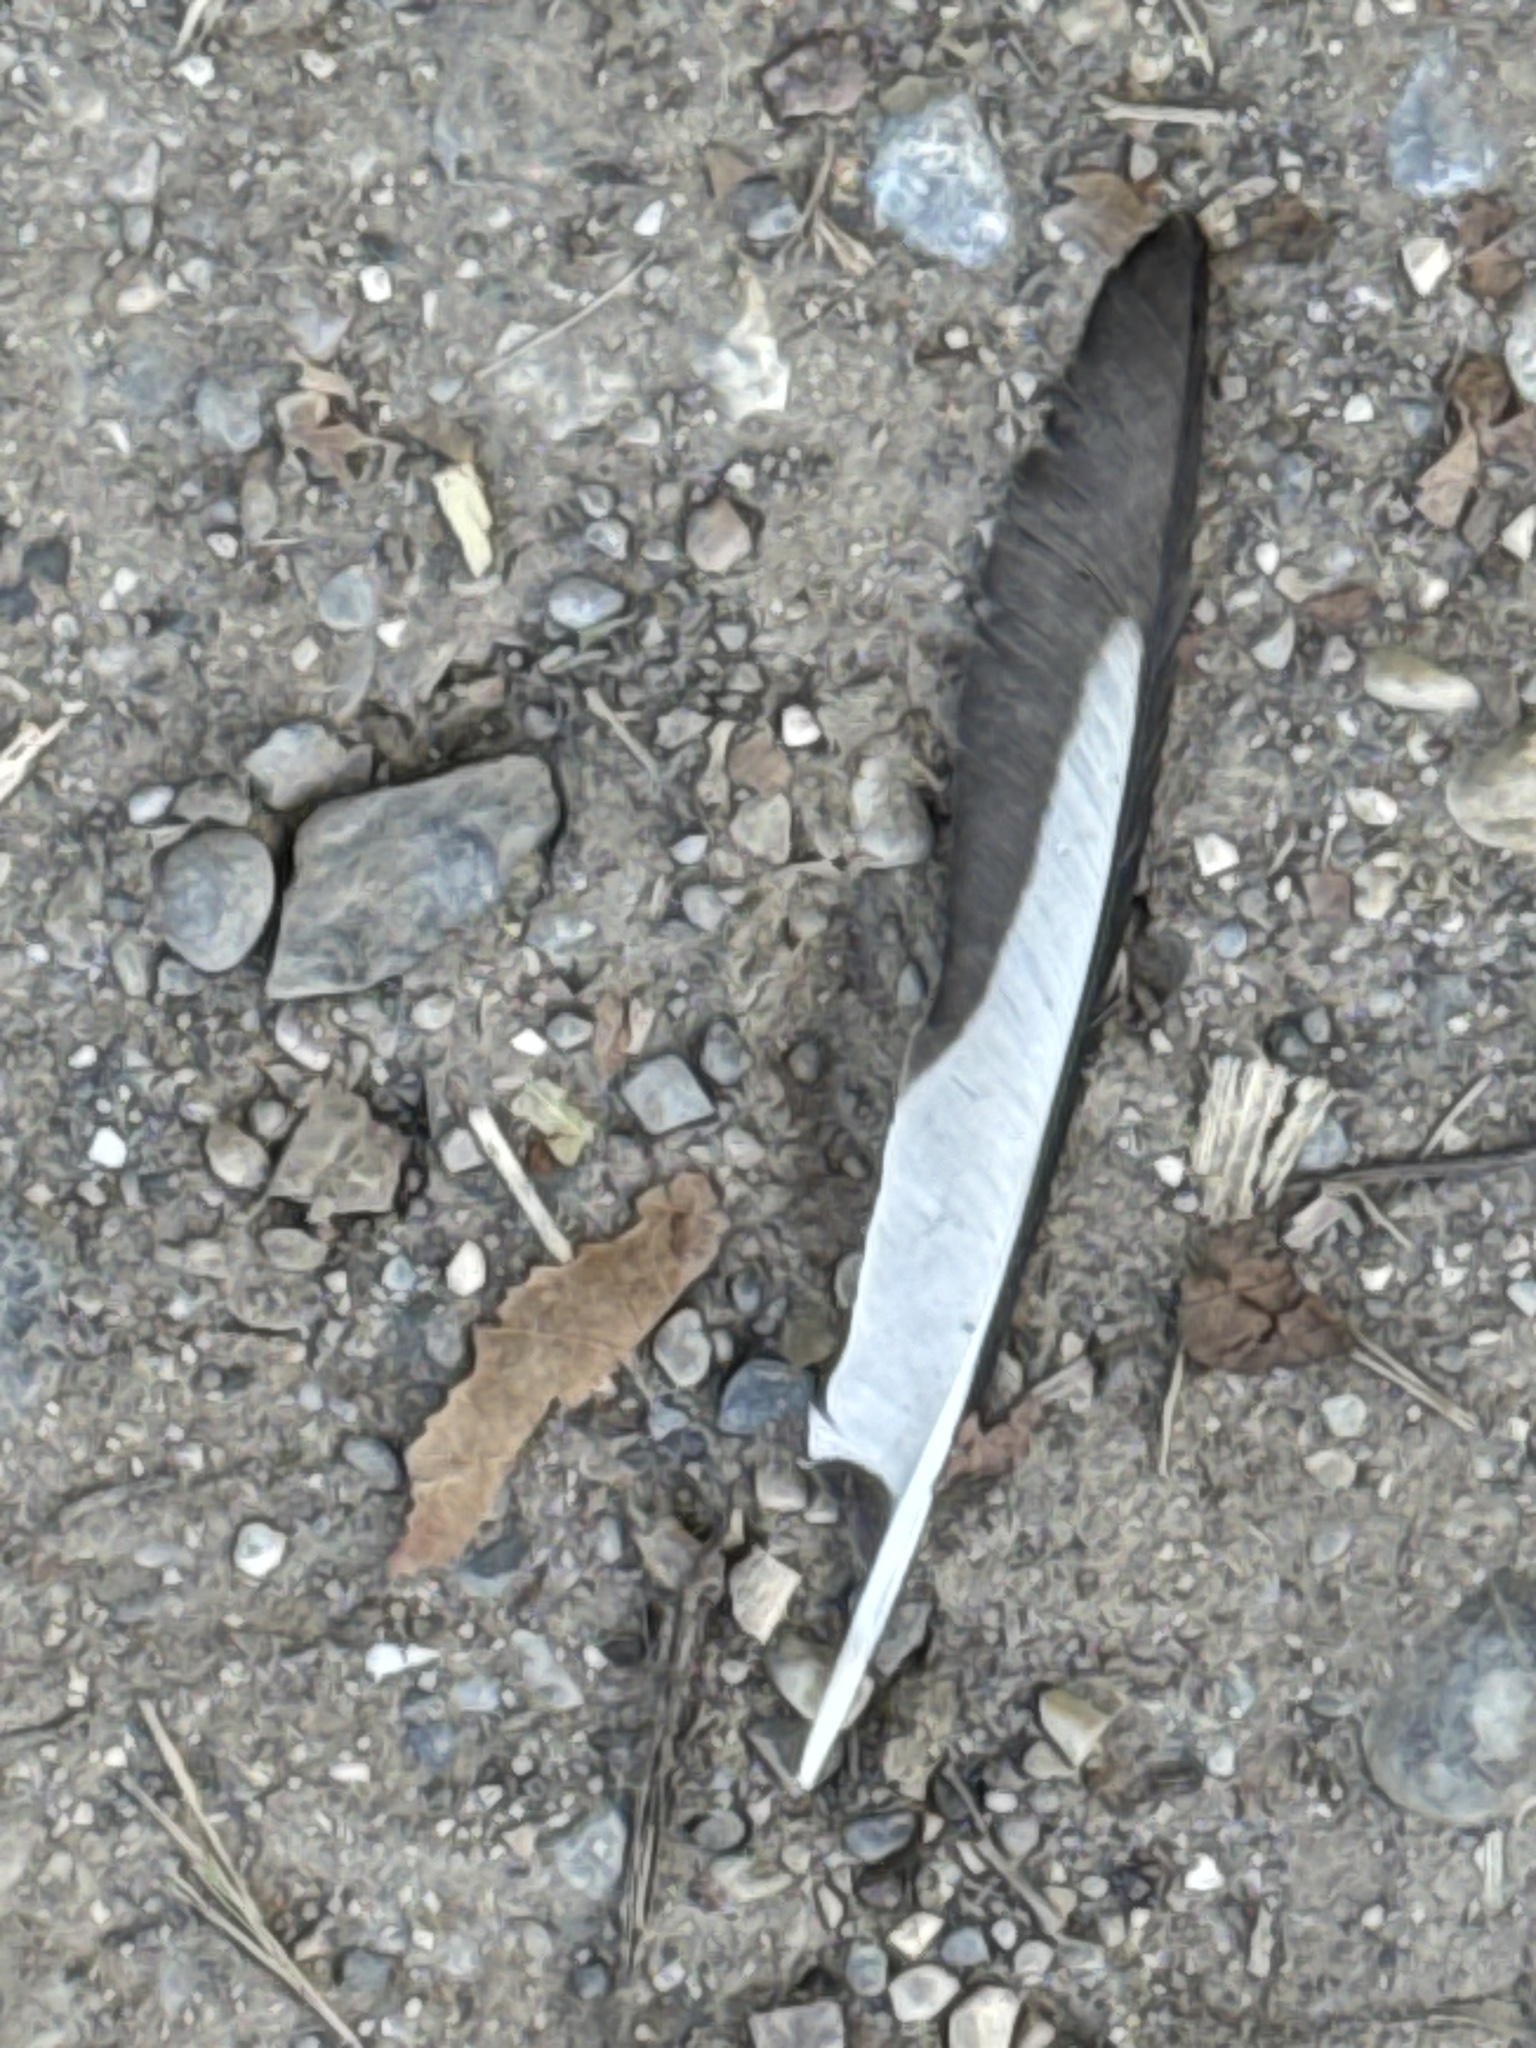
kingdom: Animalia
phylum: Chordata
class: Aves
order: Passeriformes
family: Corvidae
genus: Pica
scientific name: Pica pica
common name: Eurasian magpie
